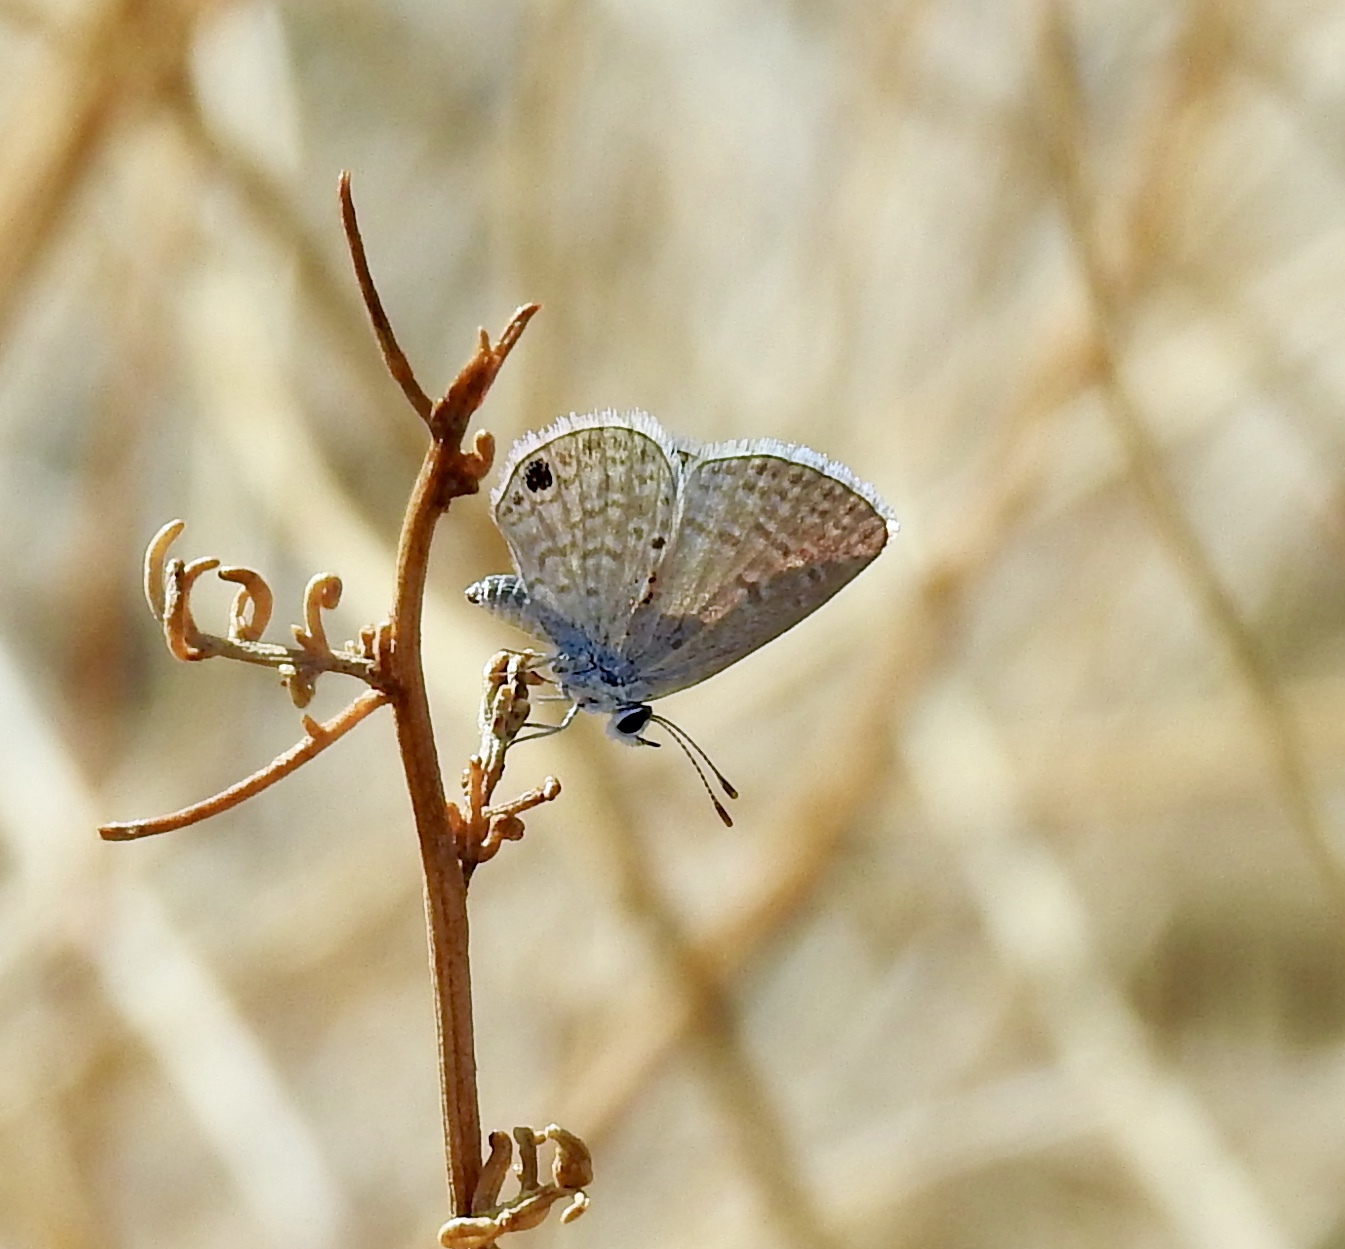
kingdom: Animalia
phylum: Arthropoda
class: Insecta
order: Lepidoptera
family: Lycaenidae
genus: Hemiargus
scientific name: Hemiargus ceraunus
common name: Ceraunus blue
